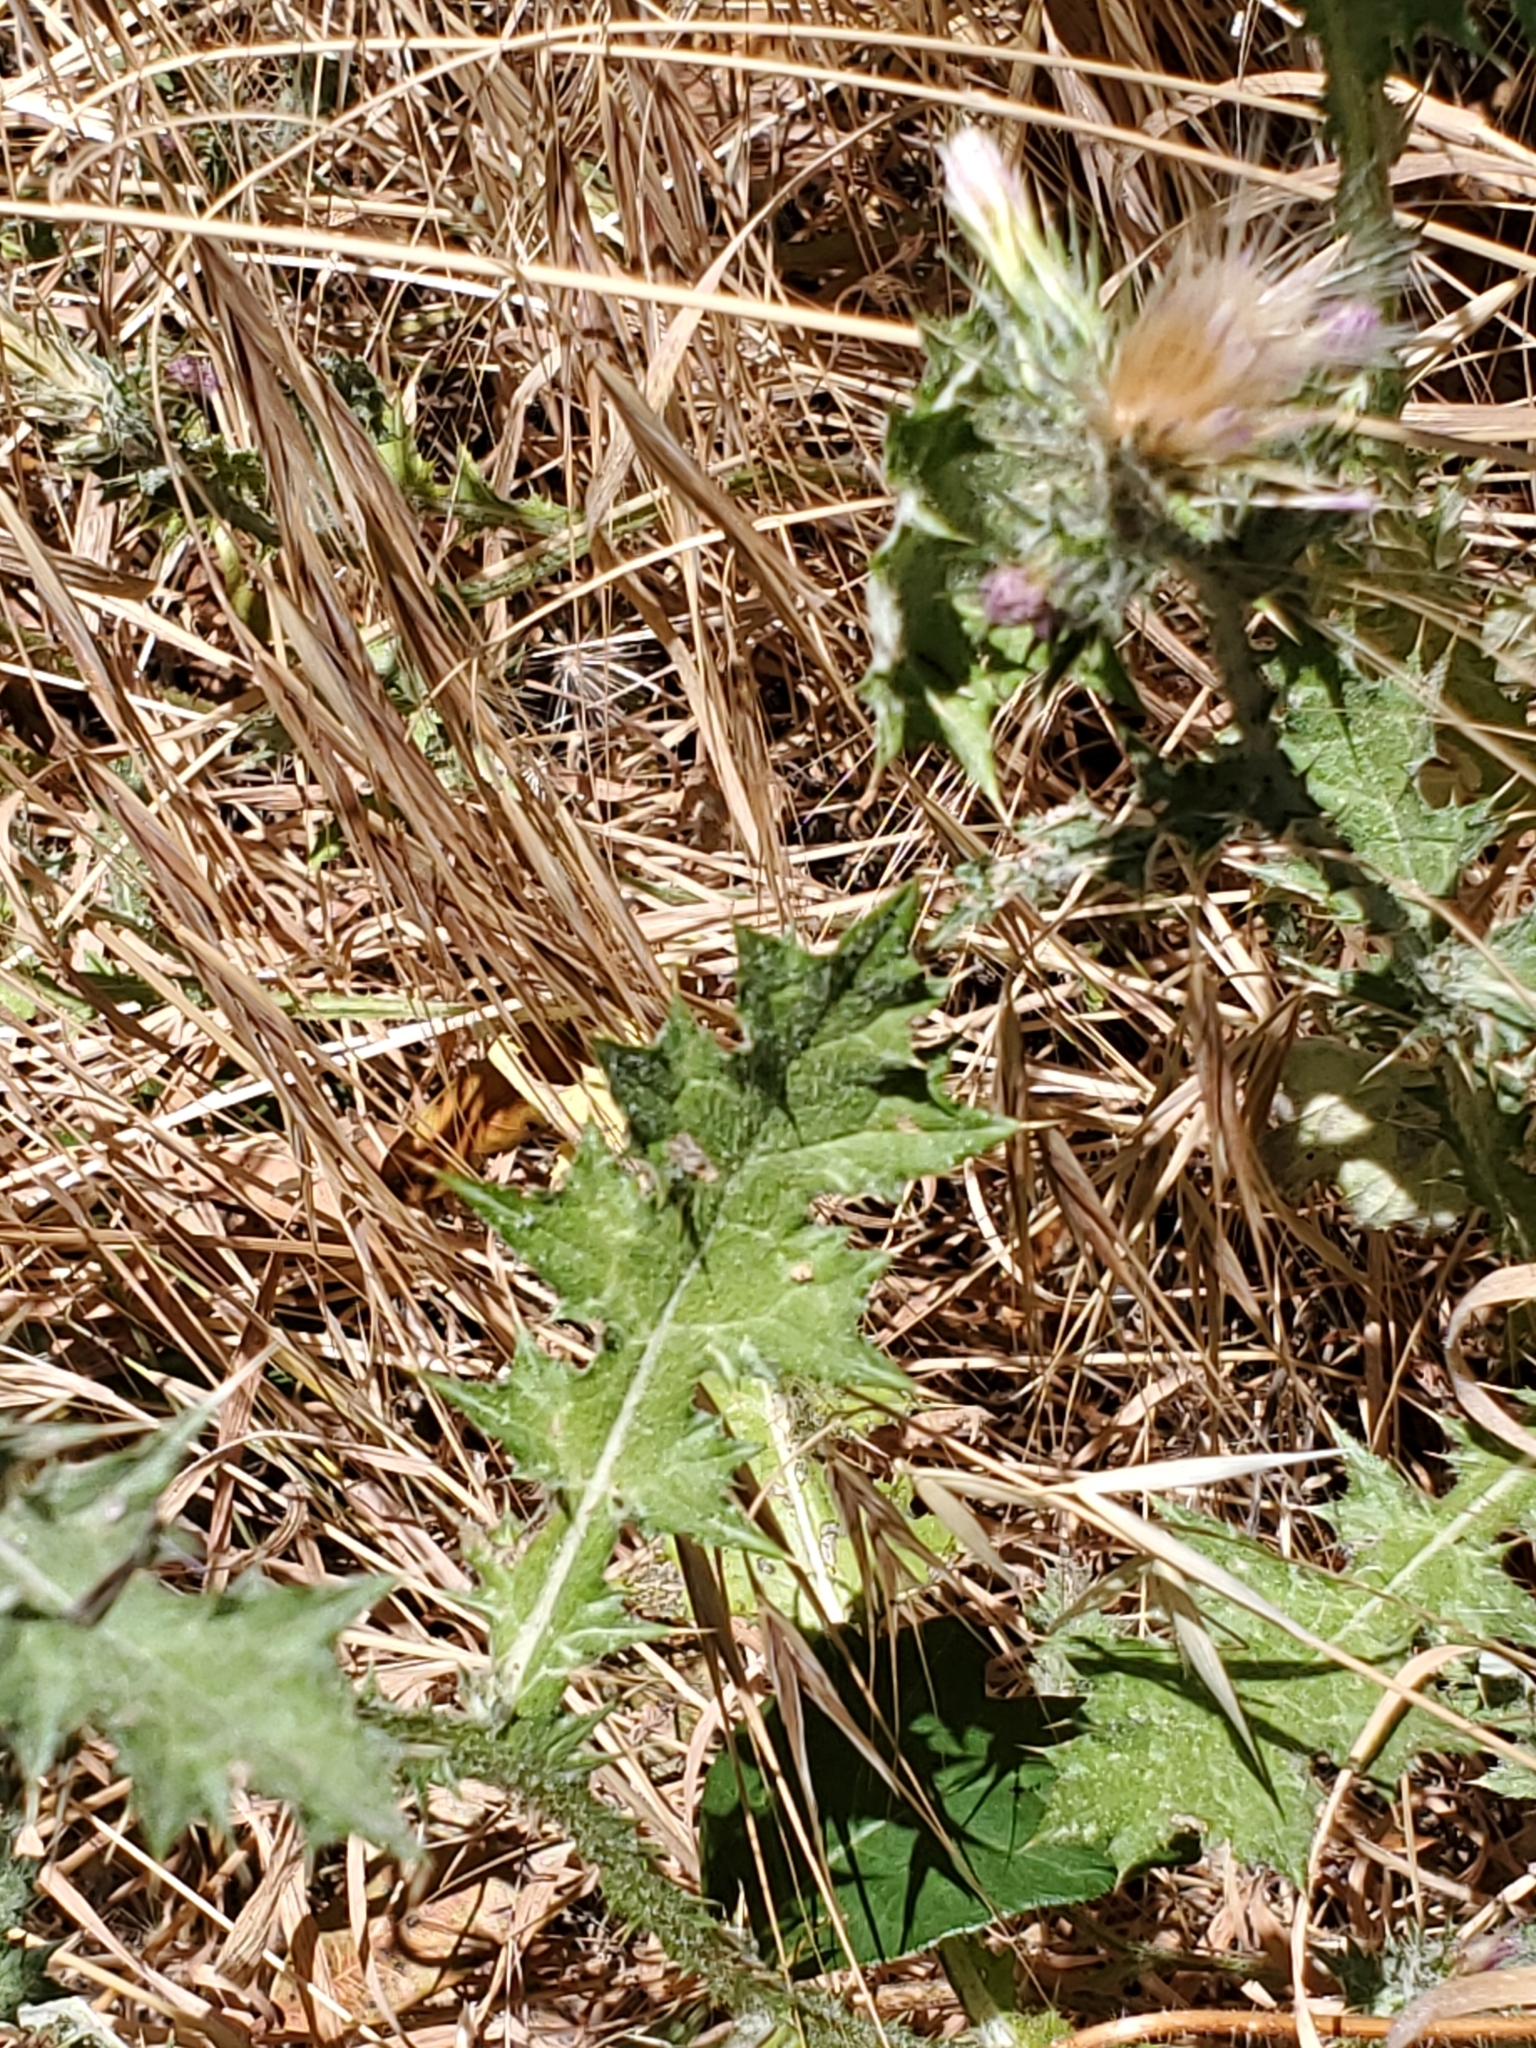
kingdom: Plantae
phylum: Tracheophyta
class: Magnoliopsida
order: Asterales
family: Asteraceae
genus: Carduus
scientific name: Carduus pycnocephalus
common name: Plymouth thistle
